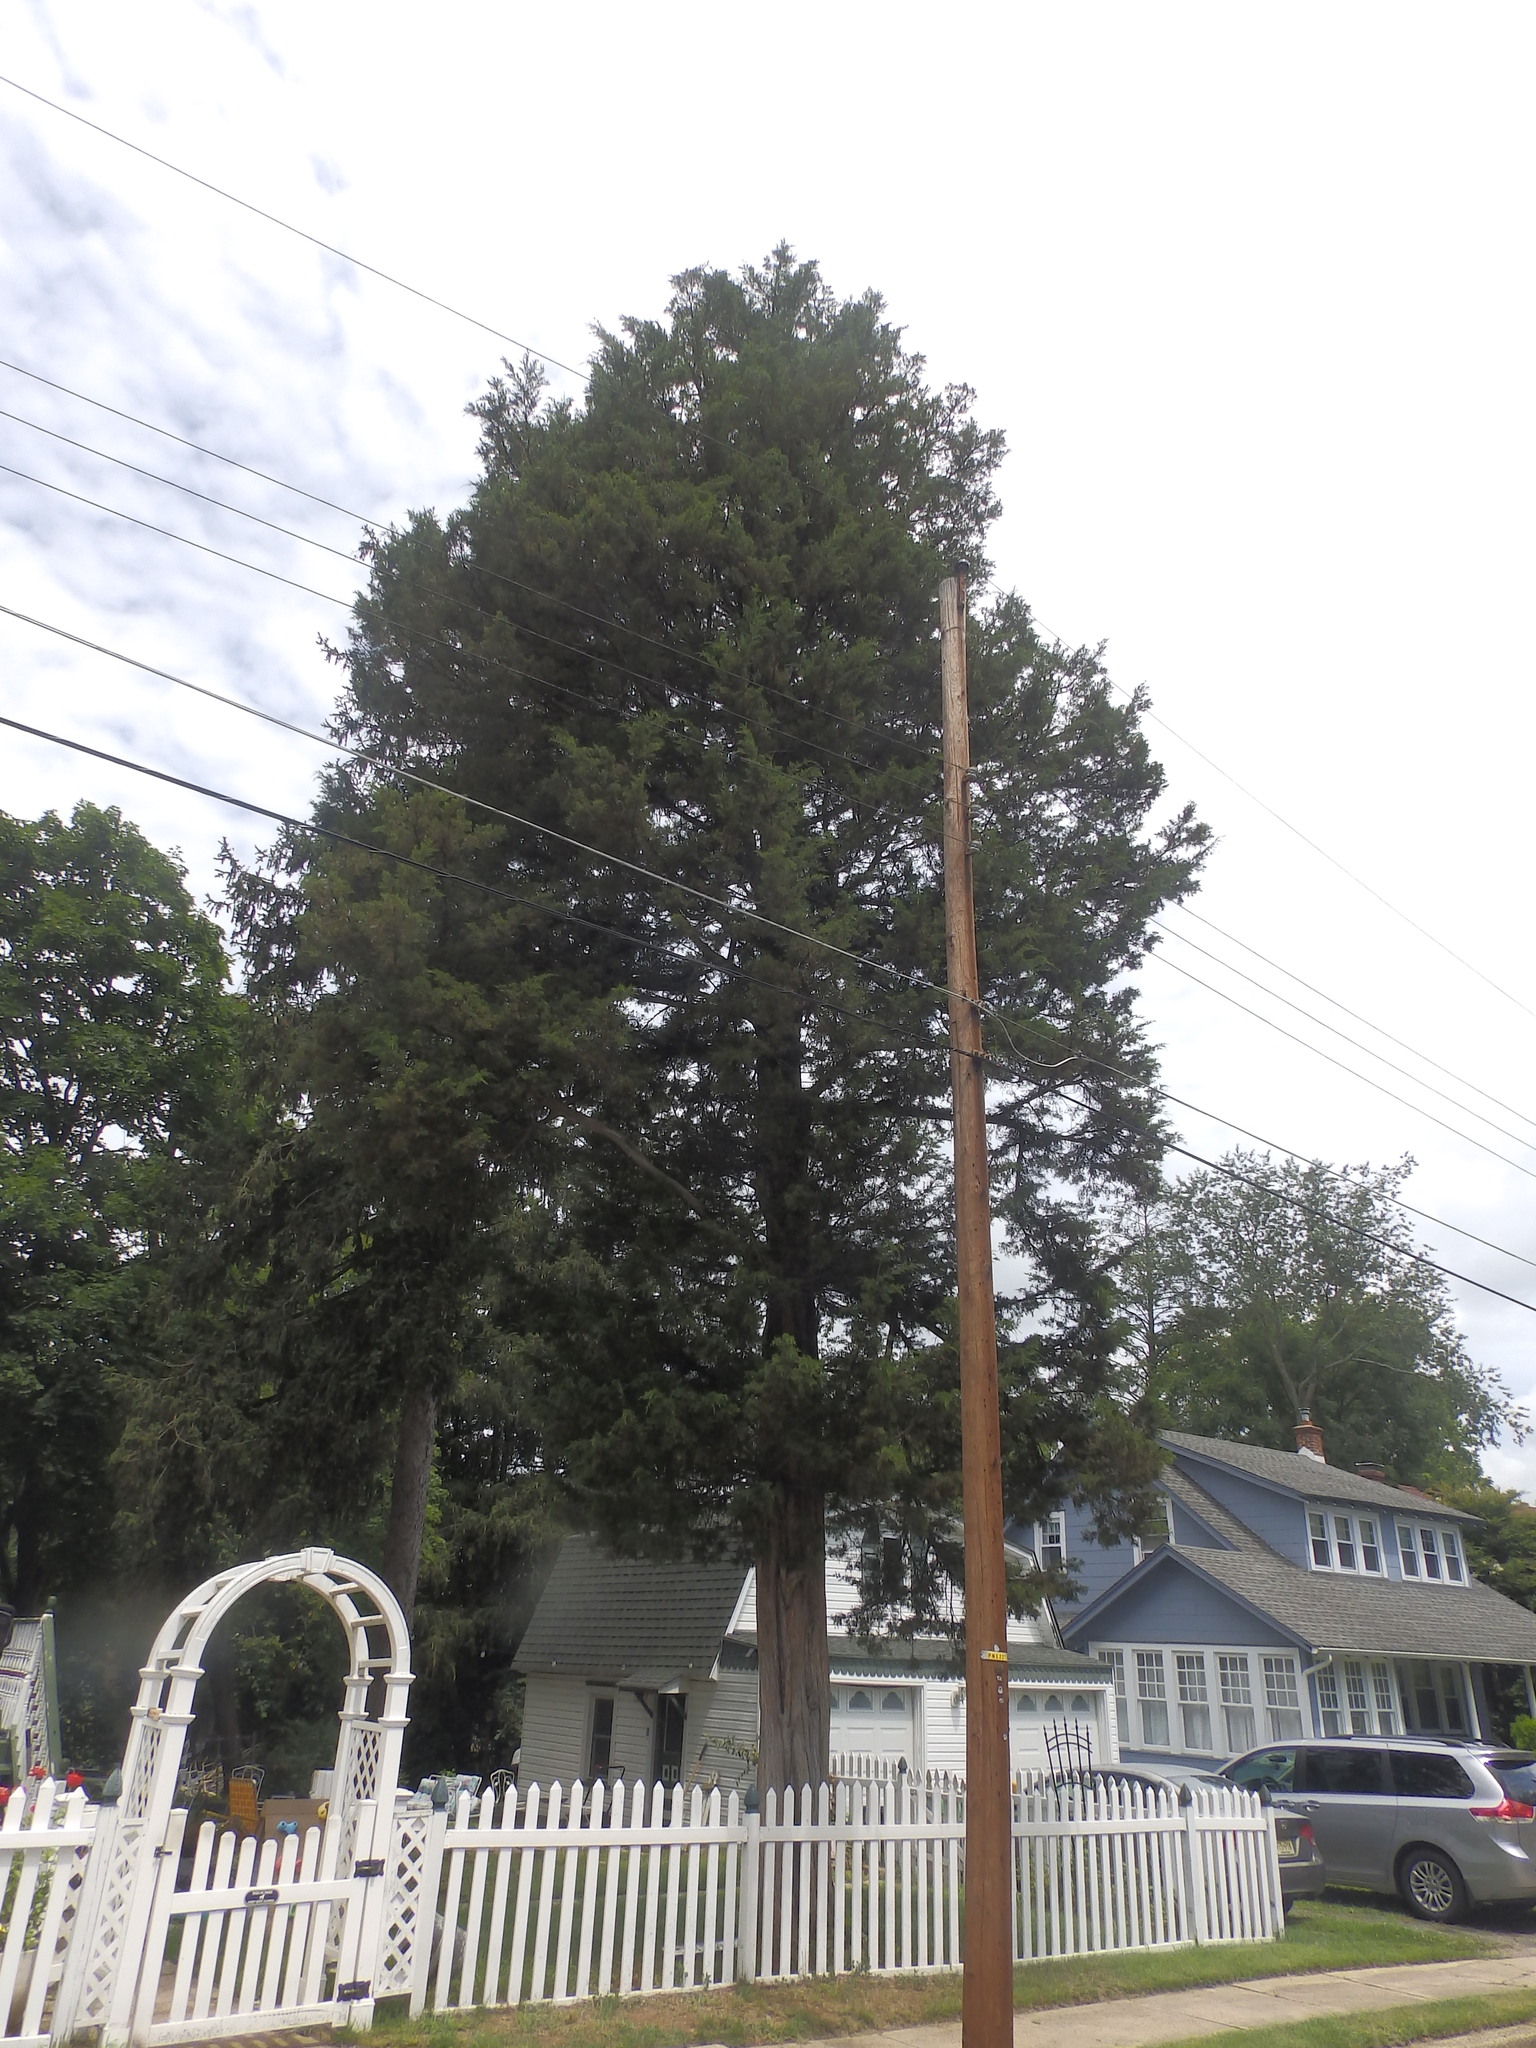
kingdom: Plantae
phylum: Tracheophyta
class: Pinopsida
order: Pinales
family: Cupressaceae
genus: Juniperus
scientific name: Juniperus virginiana
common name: Red juniper
